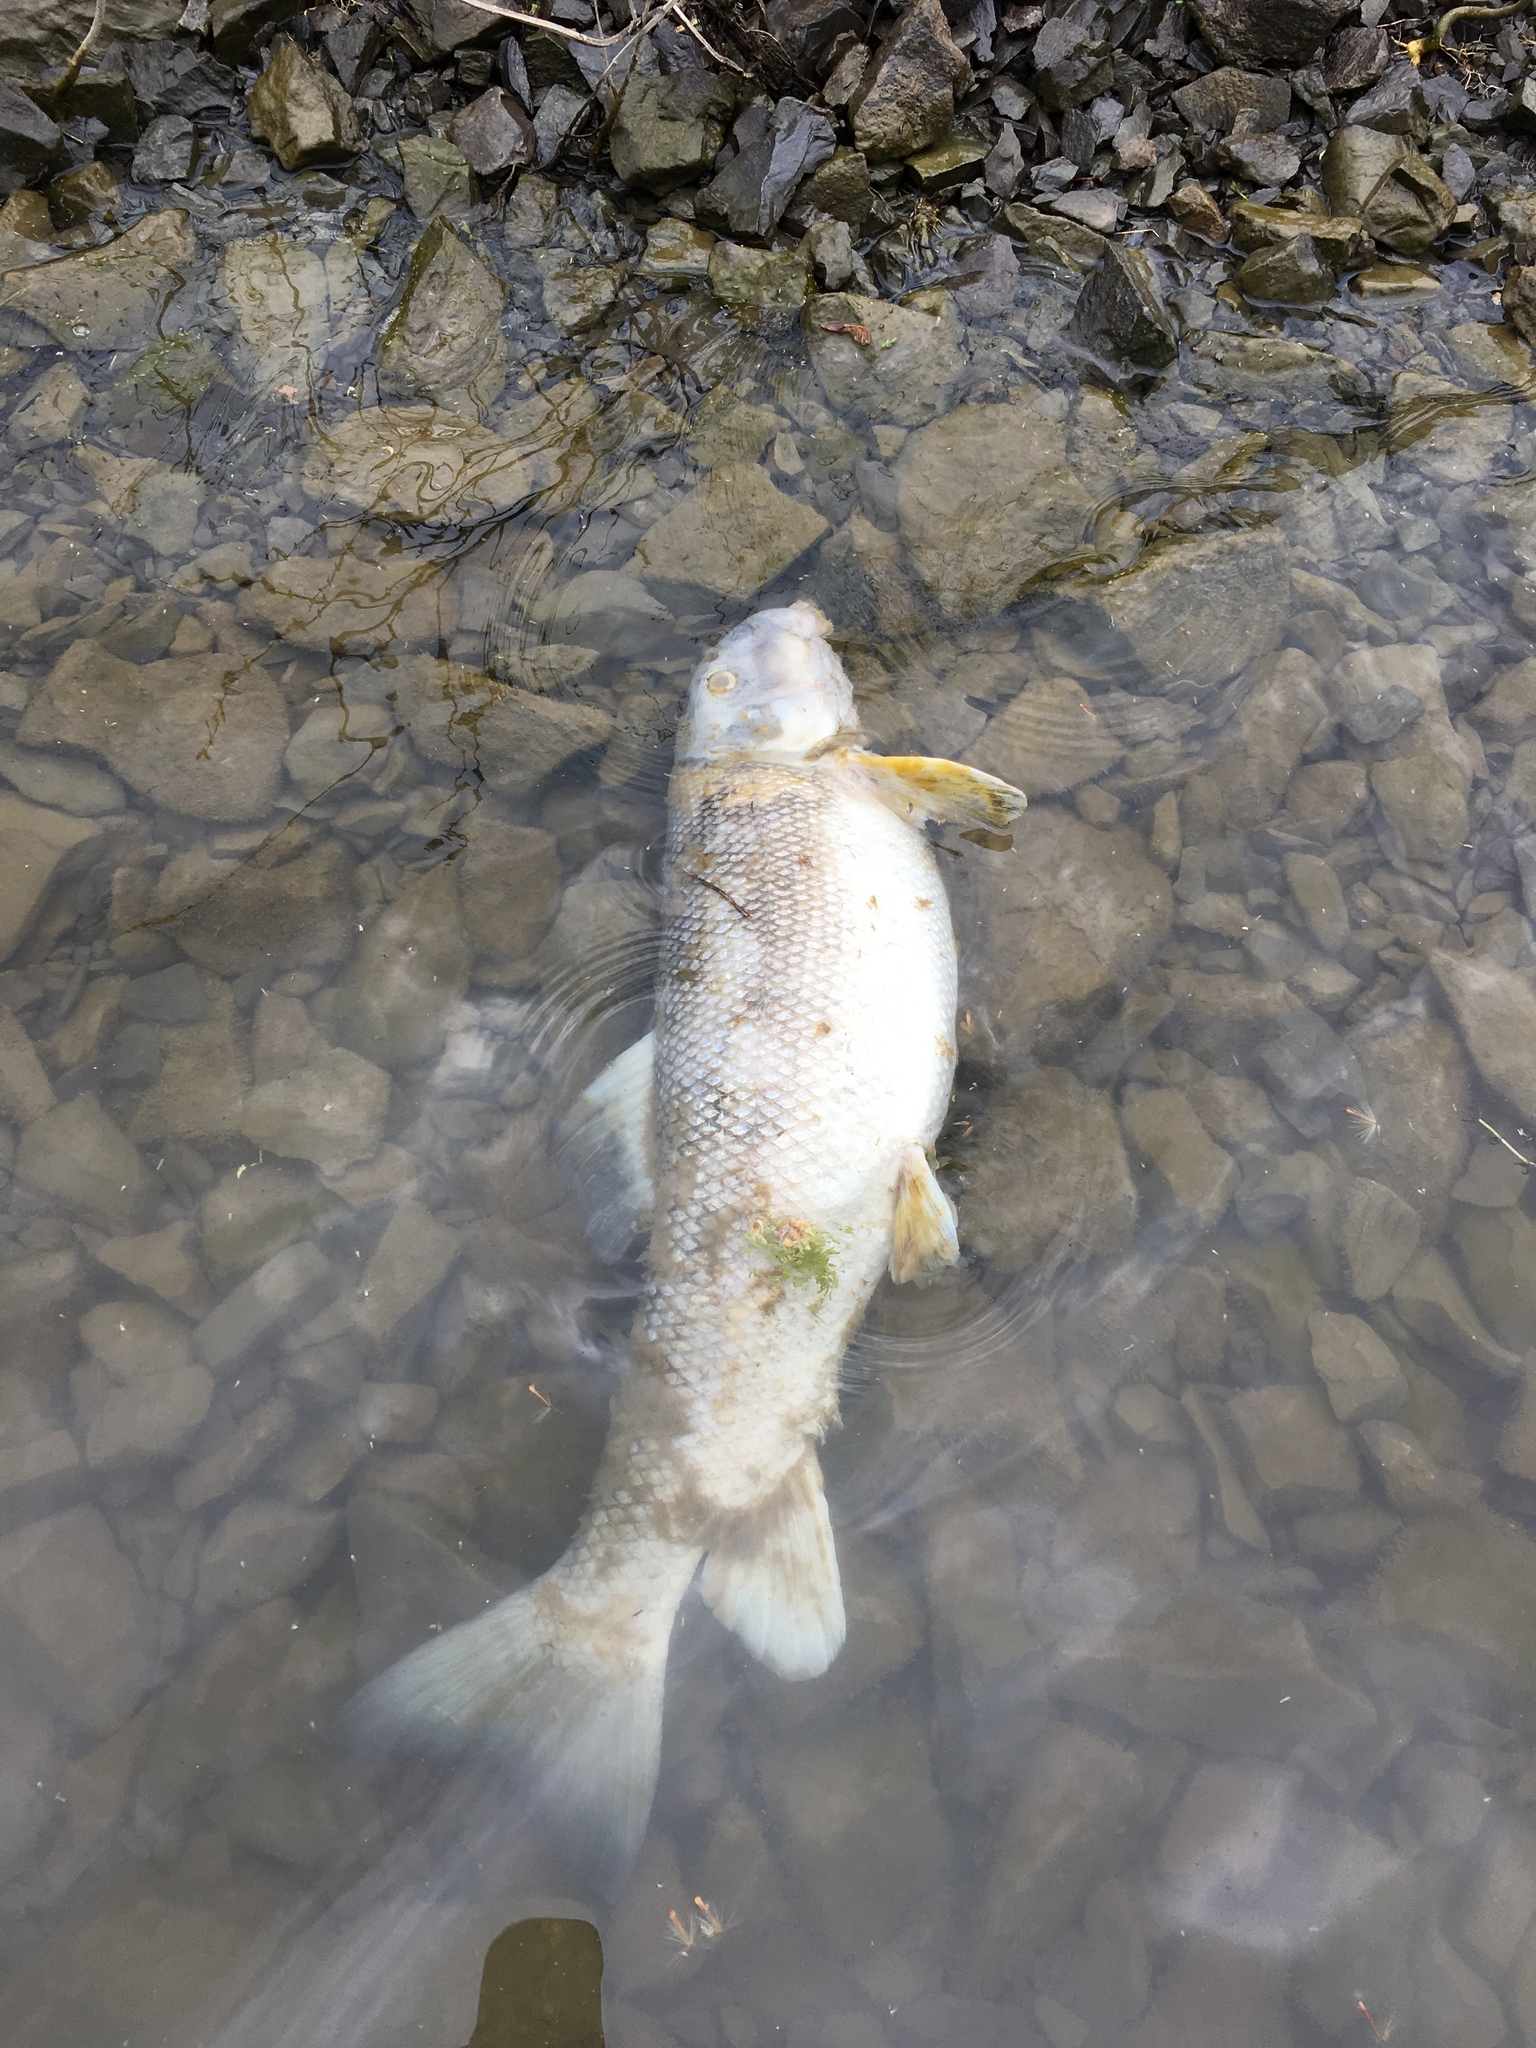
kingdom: Animalia
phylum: Chordata
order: Cypriniformes
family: Catostomidae
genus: Catostomus
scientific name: Catostomus commersonii
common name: White sucker
